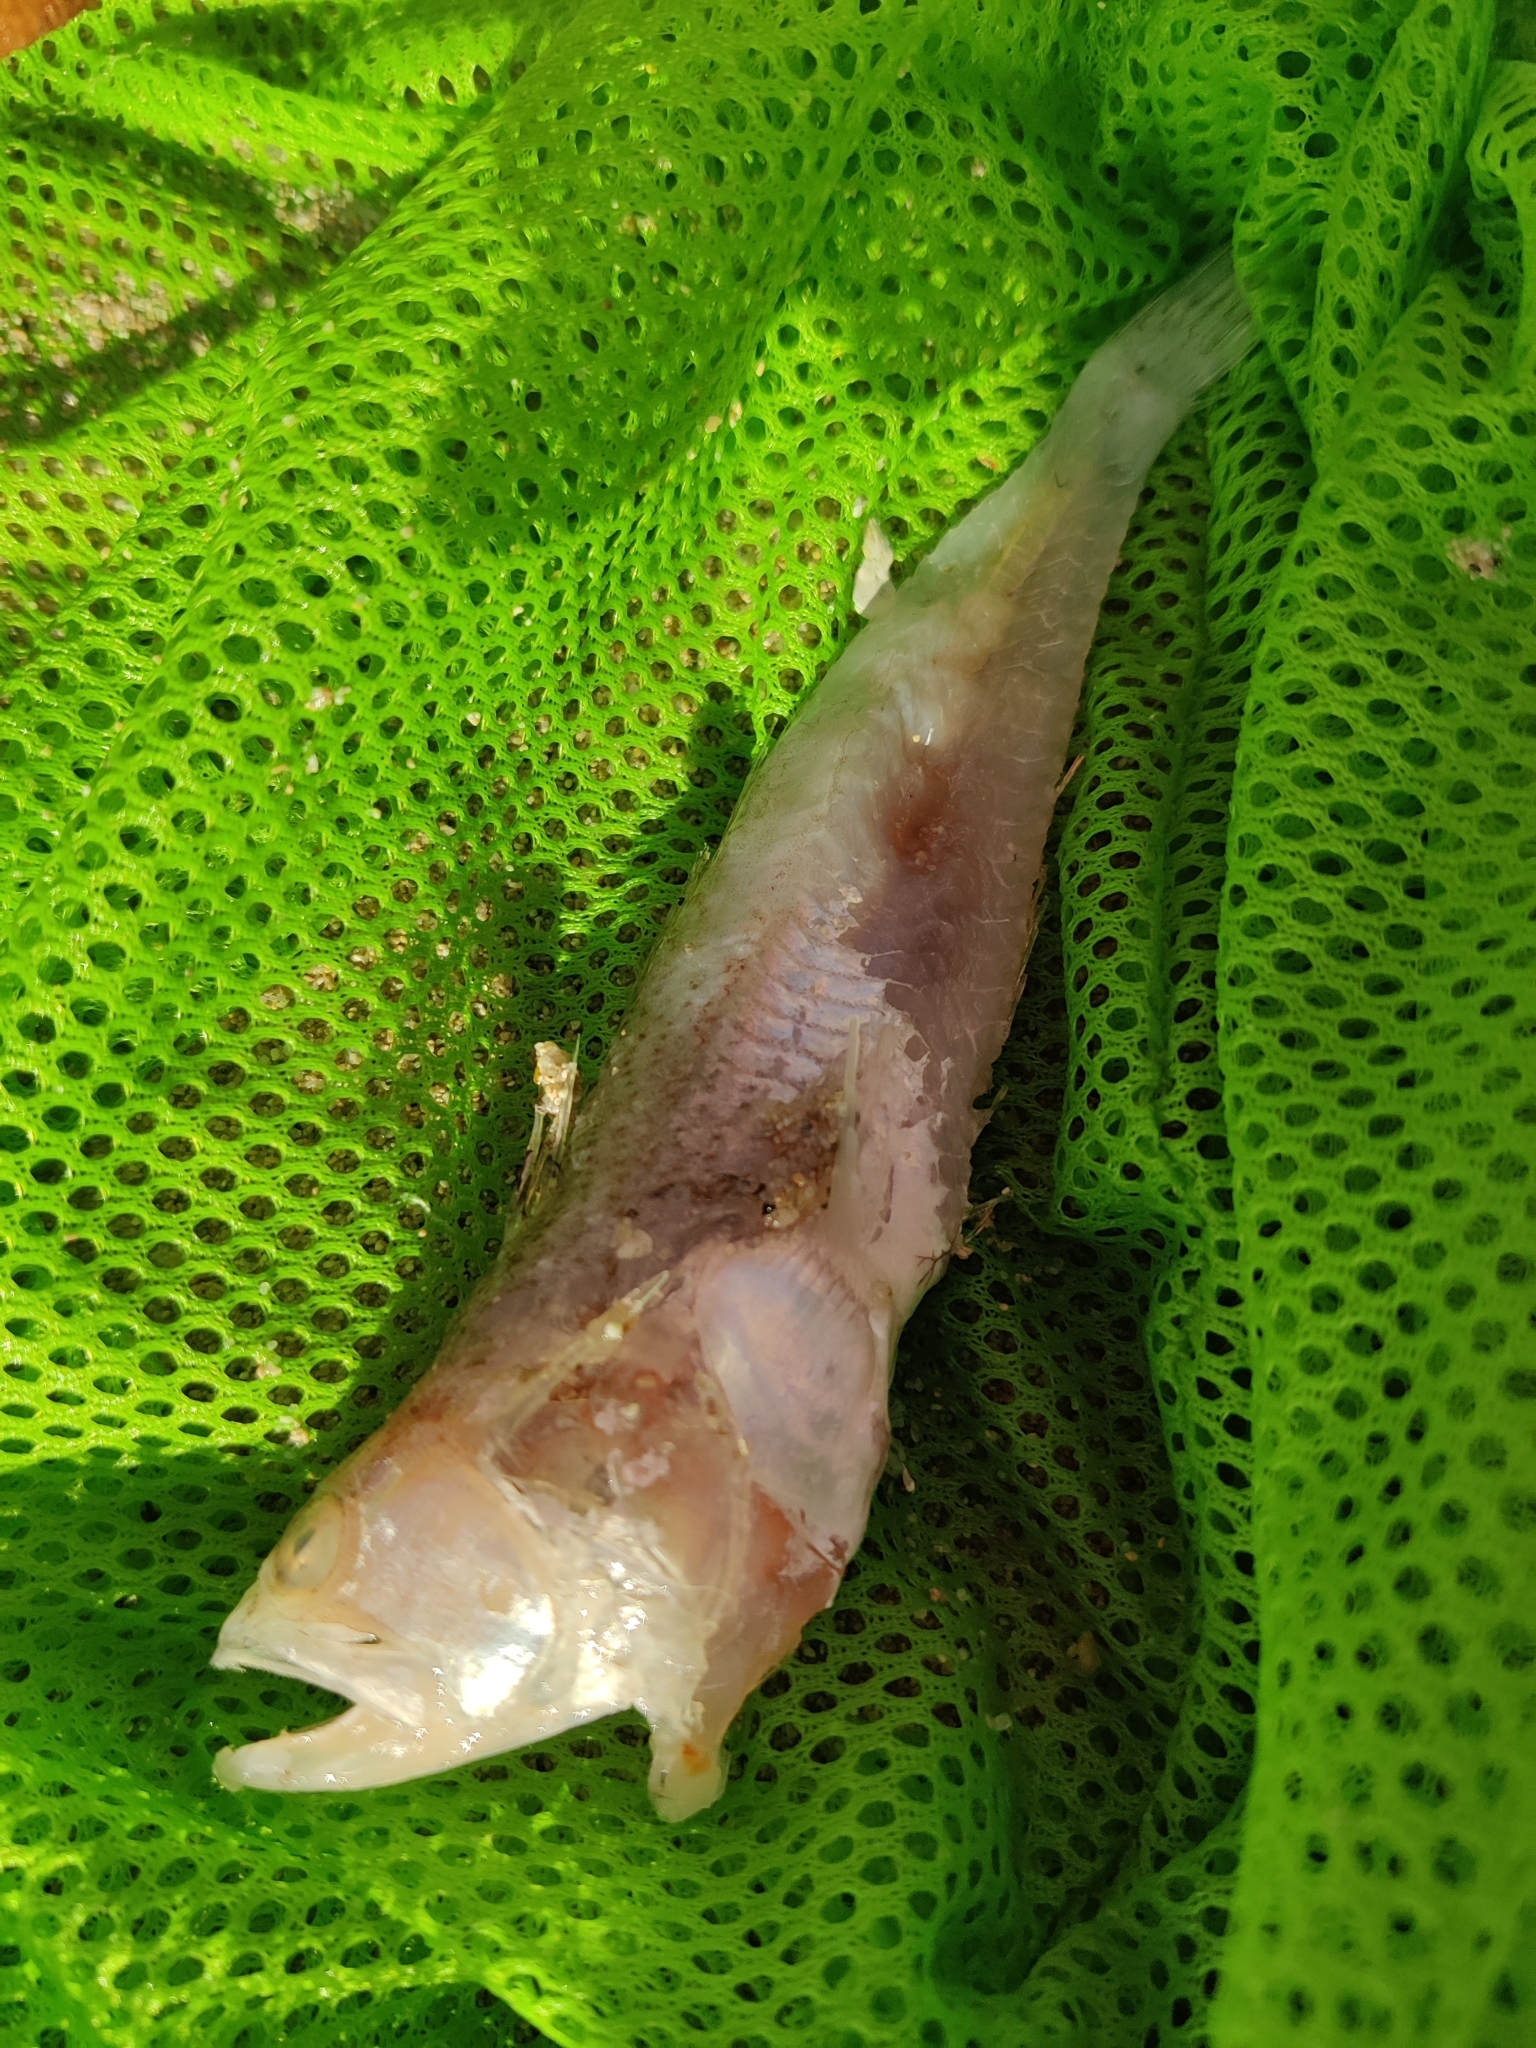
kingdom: Animalia
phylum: Chordata
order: Perciformes
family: Trachinidae
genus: Echiichthys
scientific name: Echiichthys vipera
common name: Lesser weever
